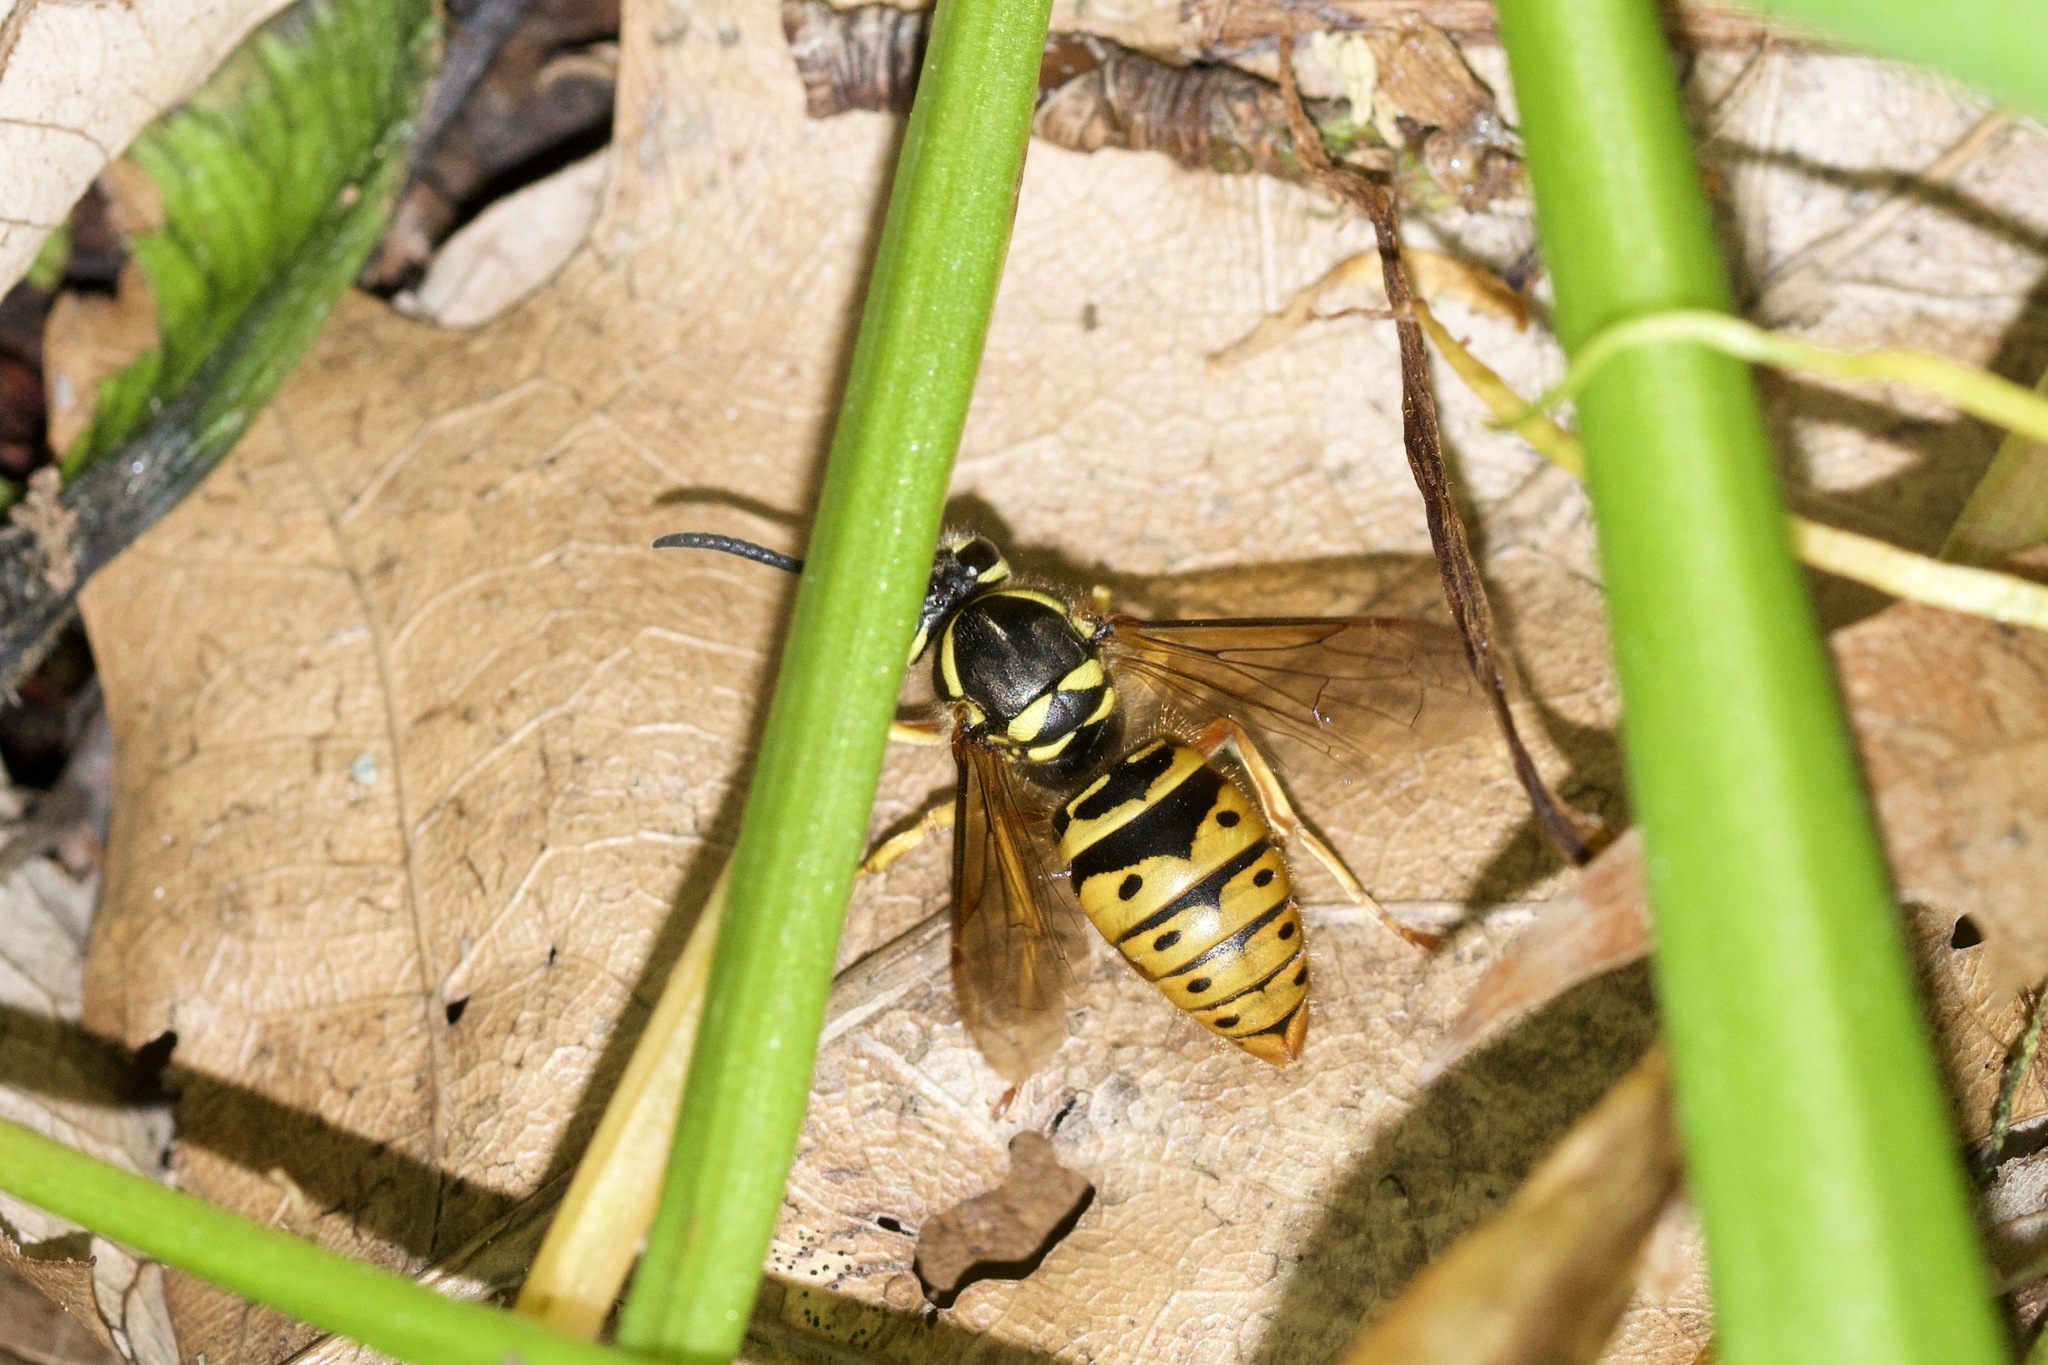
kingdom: Animalia
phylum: Arthropoda
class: Insecta
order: Hymenoptera
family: Vespidae
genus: Vespula
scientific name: Vespula maculifrons
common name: Eastern yellowjacket
